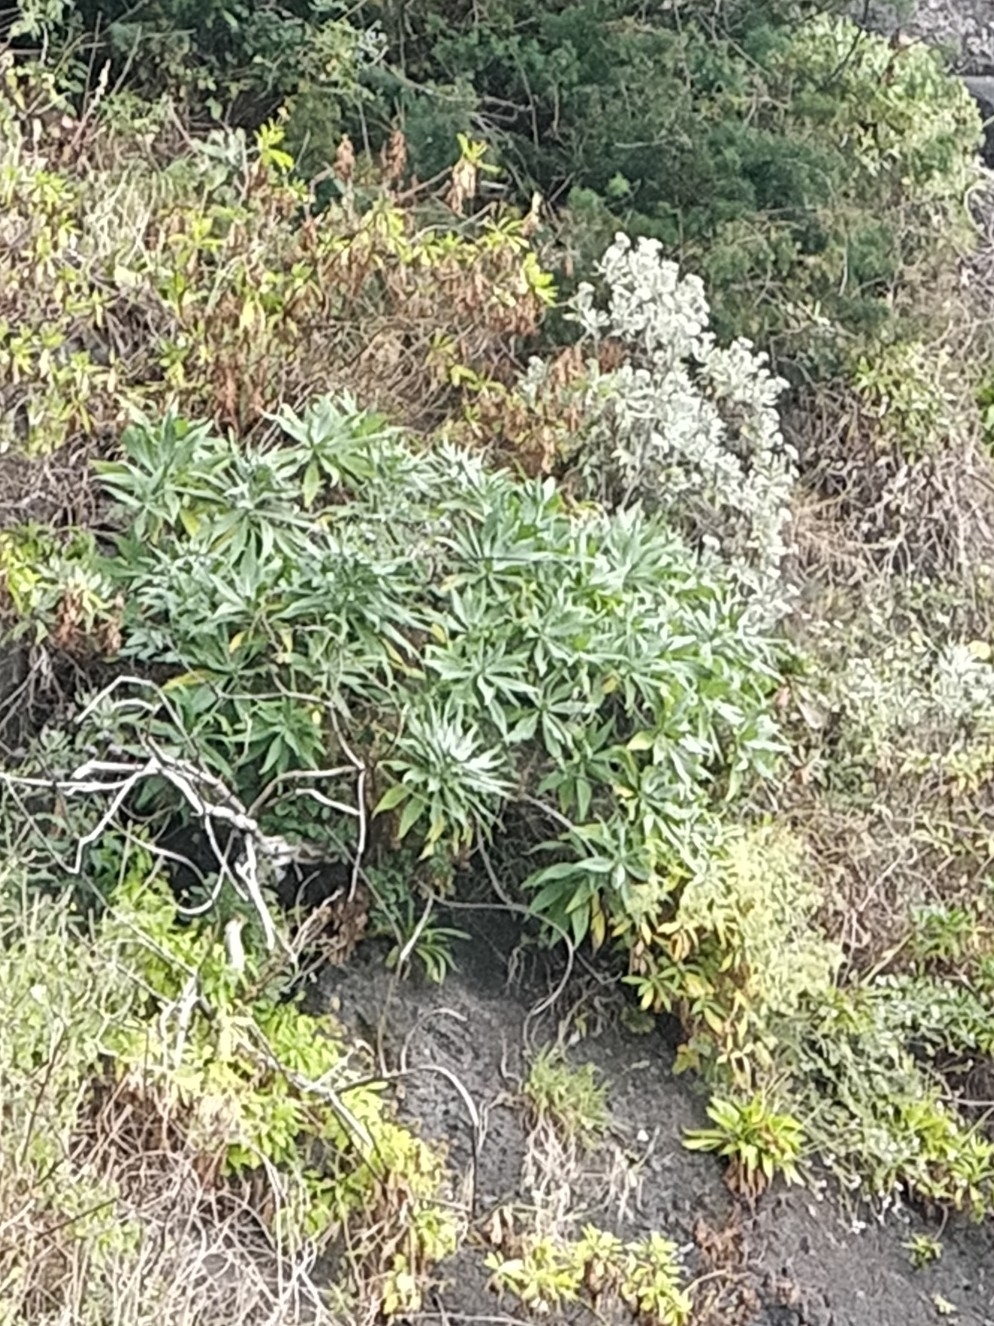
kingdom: Plantae
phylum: Tracheophyta
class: Magnoliopsida
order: Boraginales
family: Boraginaceae
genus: Echium
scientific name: Echium nervosum
